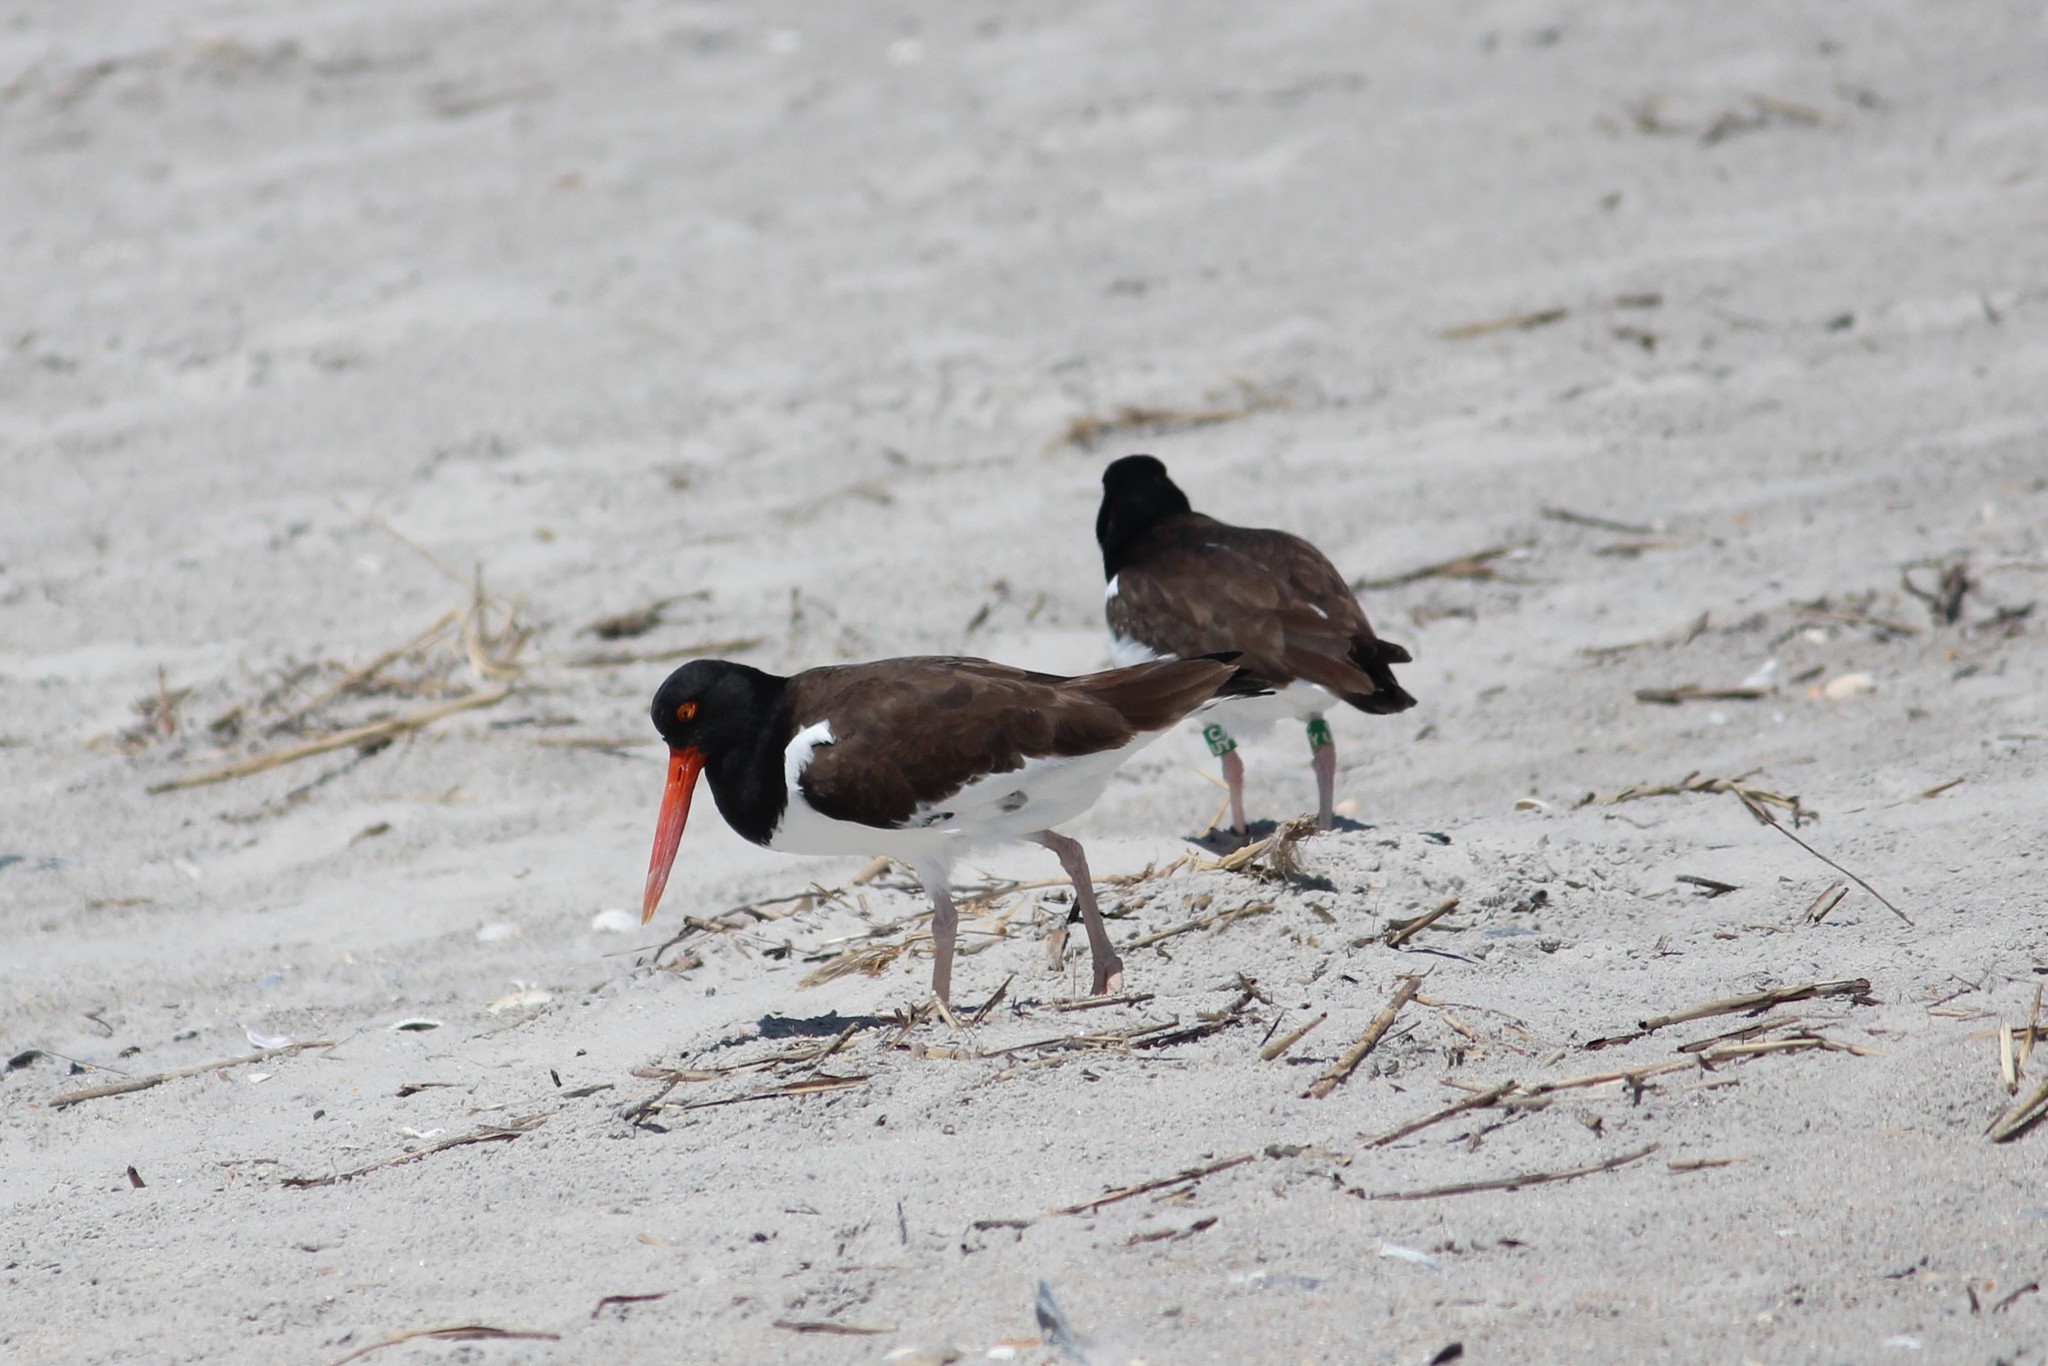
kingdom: Animalia
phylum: Chordata
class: Aves
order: Charadriiformes
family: Haematopodidae
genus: Haematopus
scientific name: Haematopus palliatus
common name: American oystercatcher
